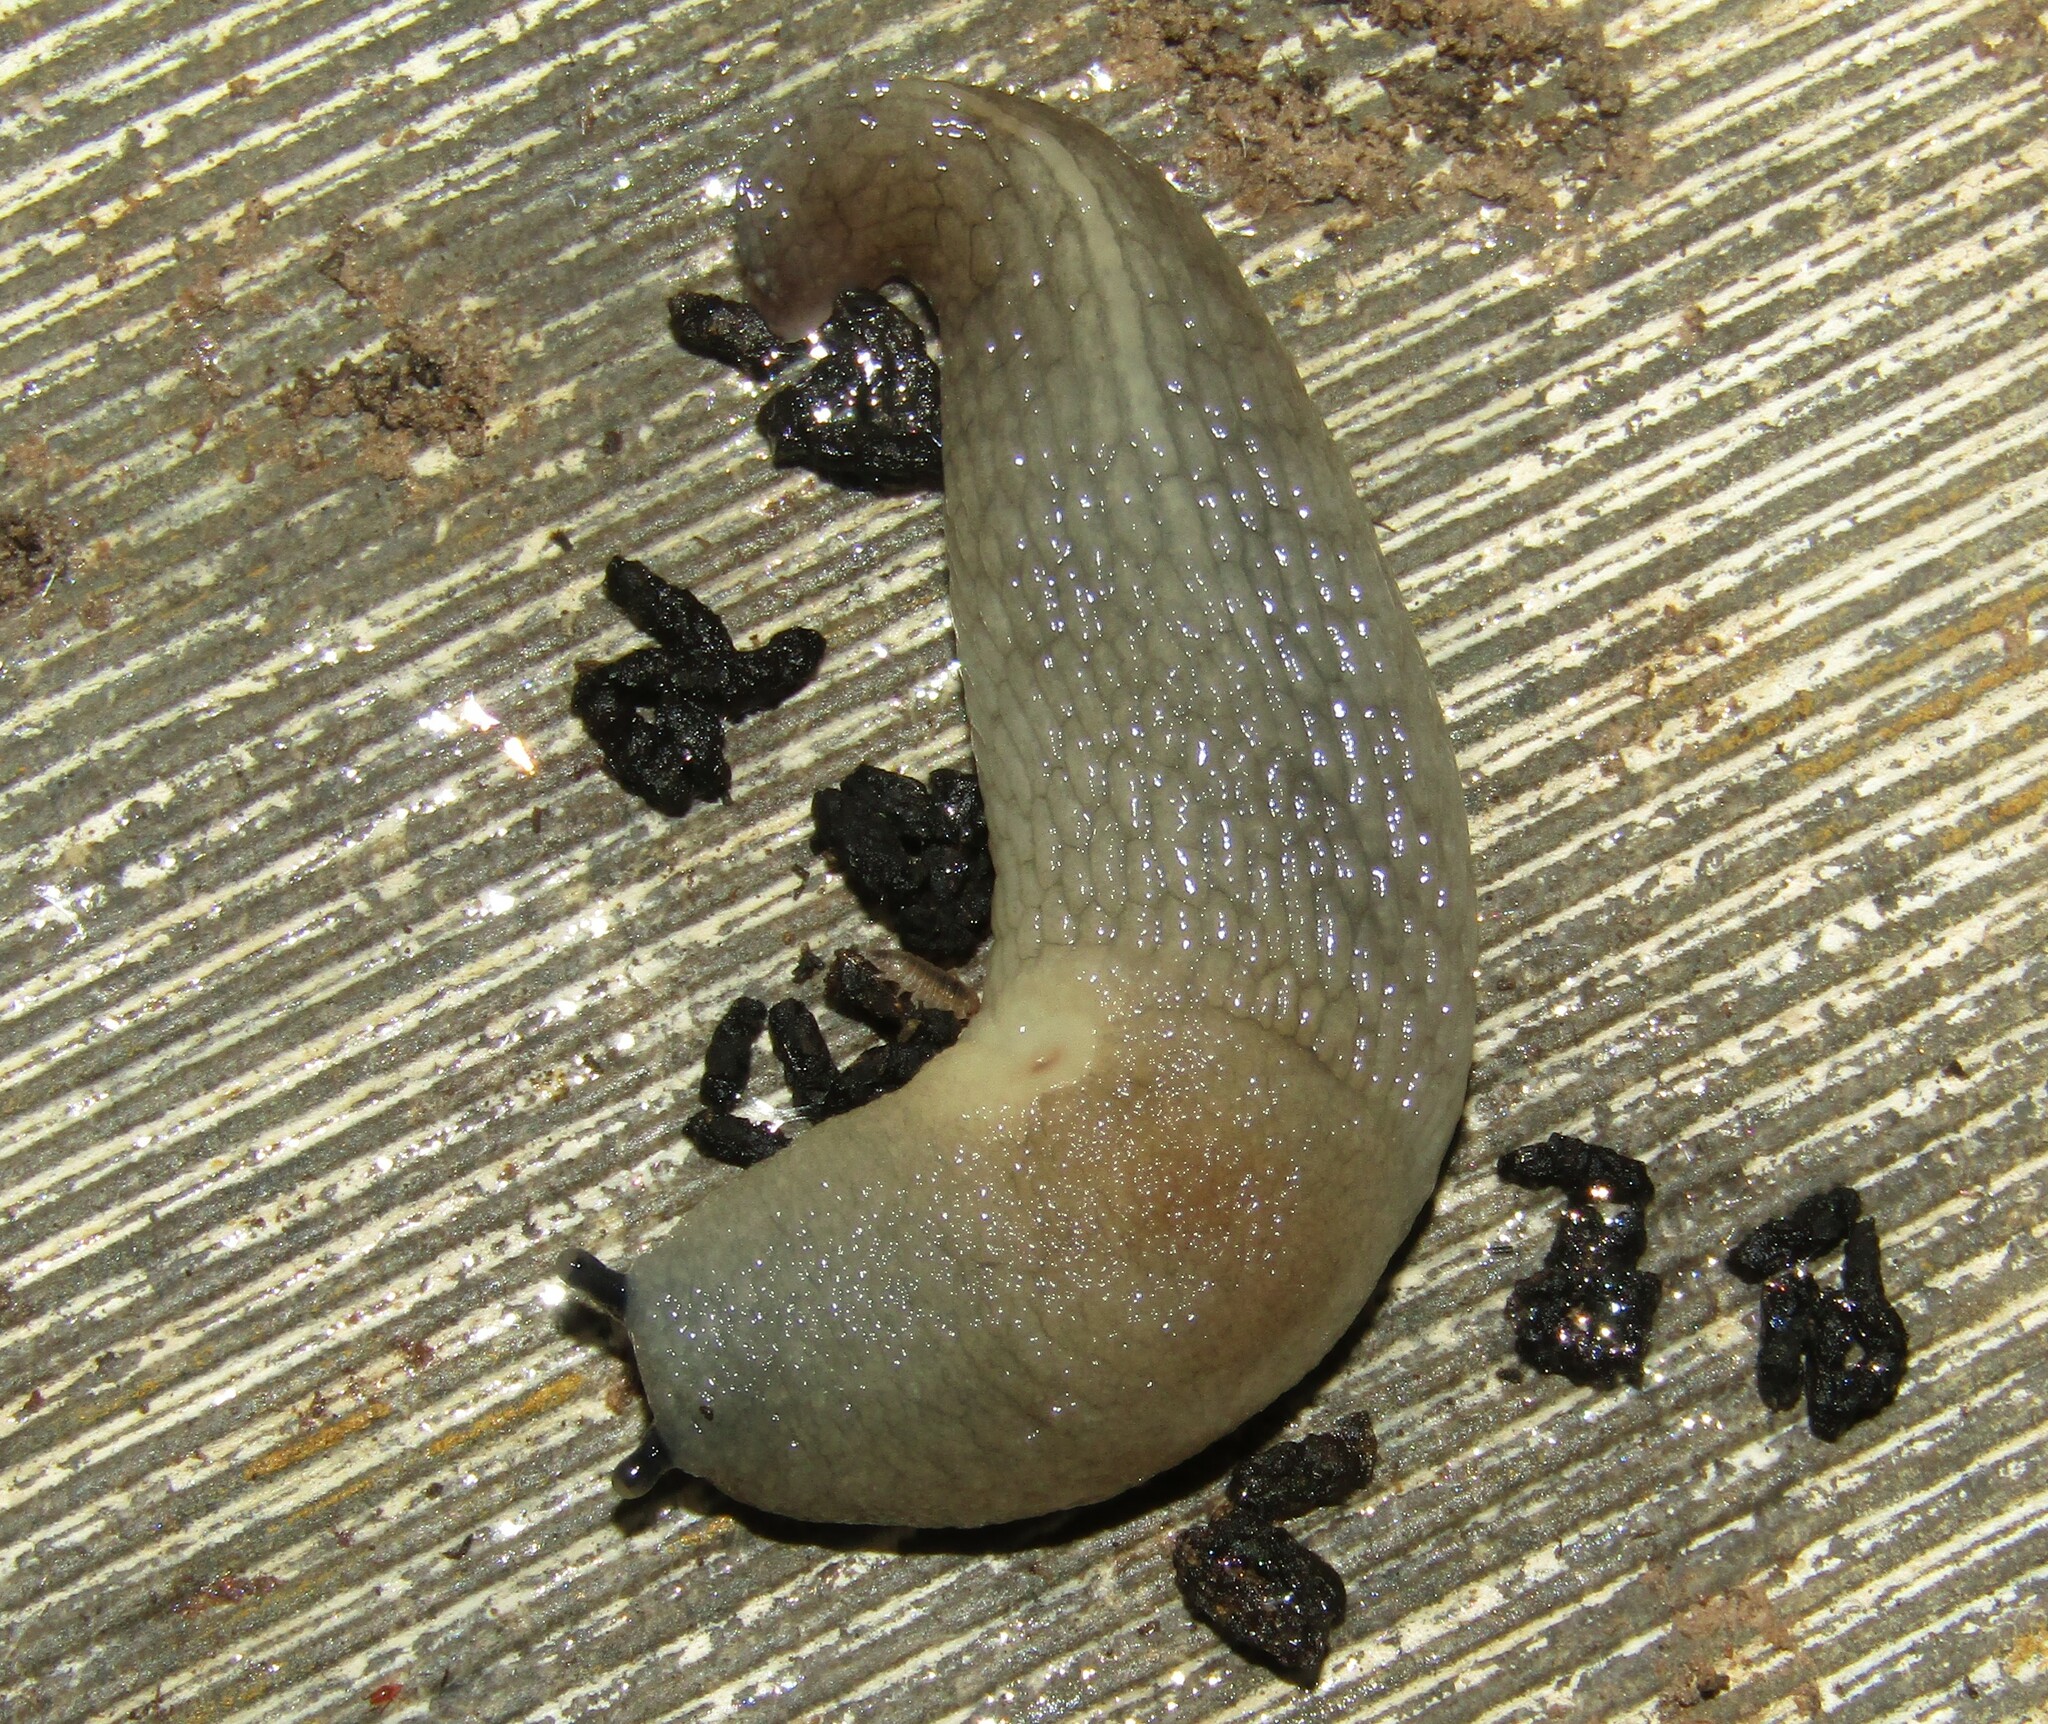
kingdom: Animalia
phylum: Mollusca
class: Gastropoda
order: Stylommatophora
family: Agriolimacidae
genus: Krynickillus
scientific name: Krynickillus melanocephalus
